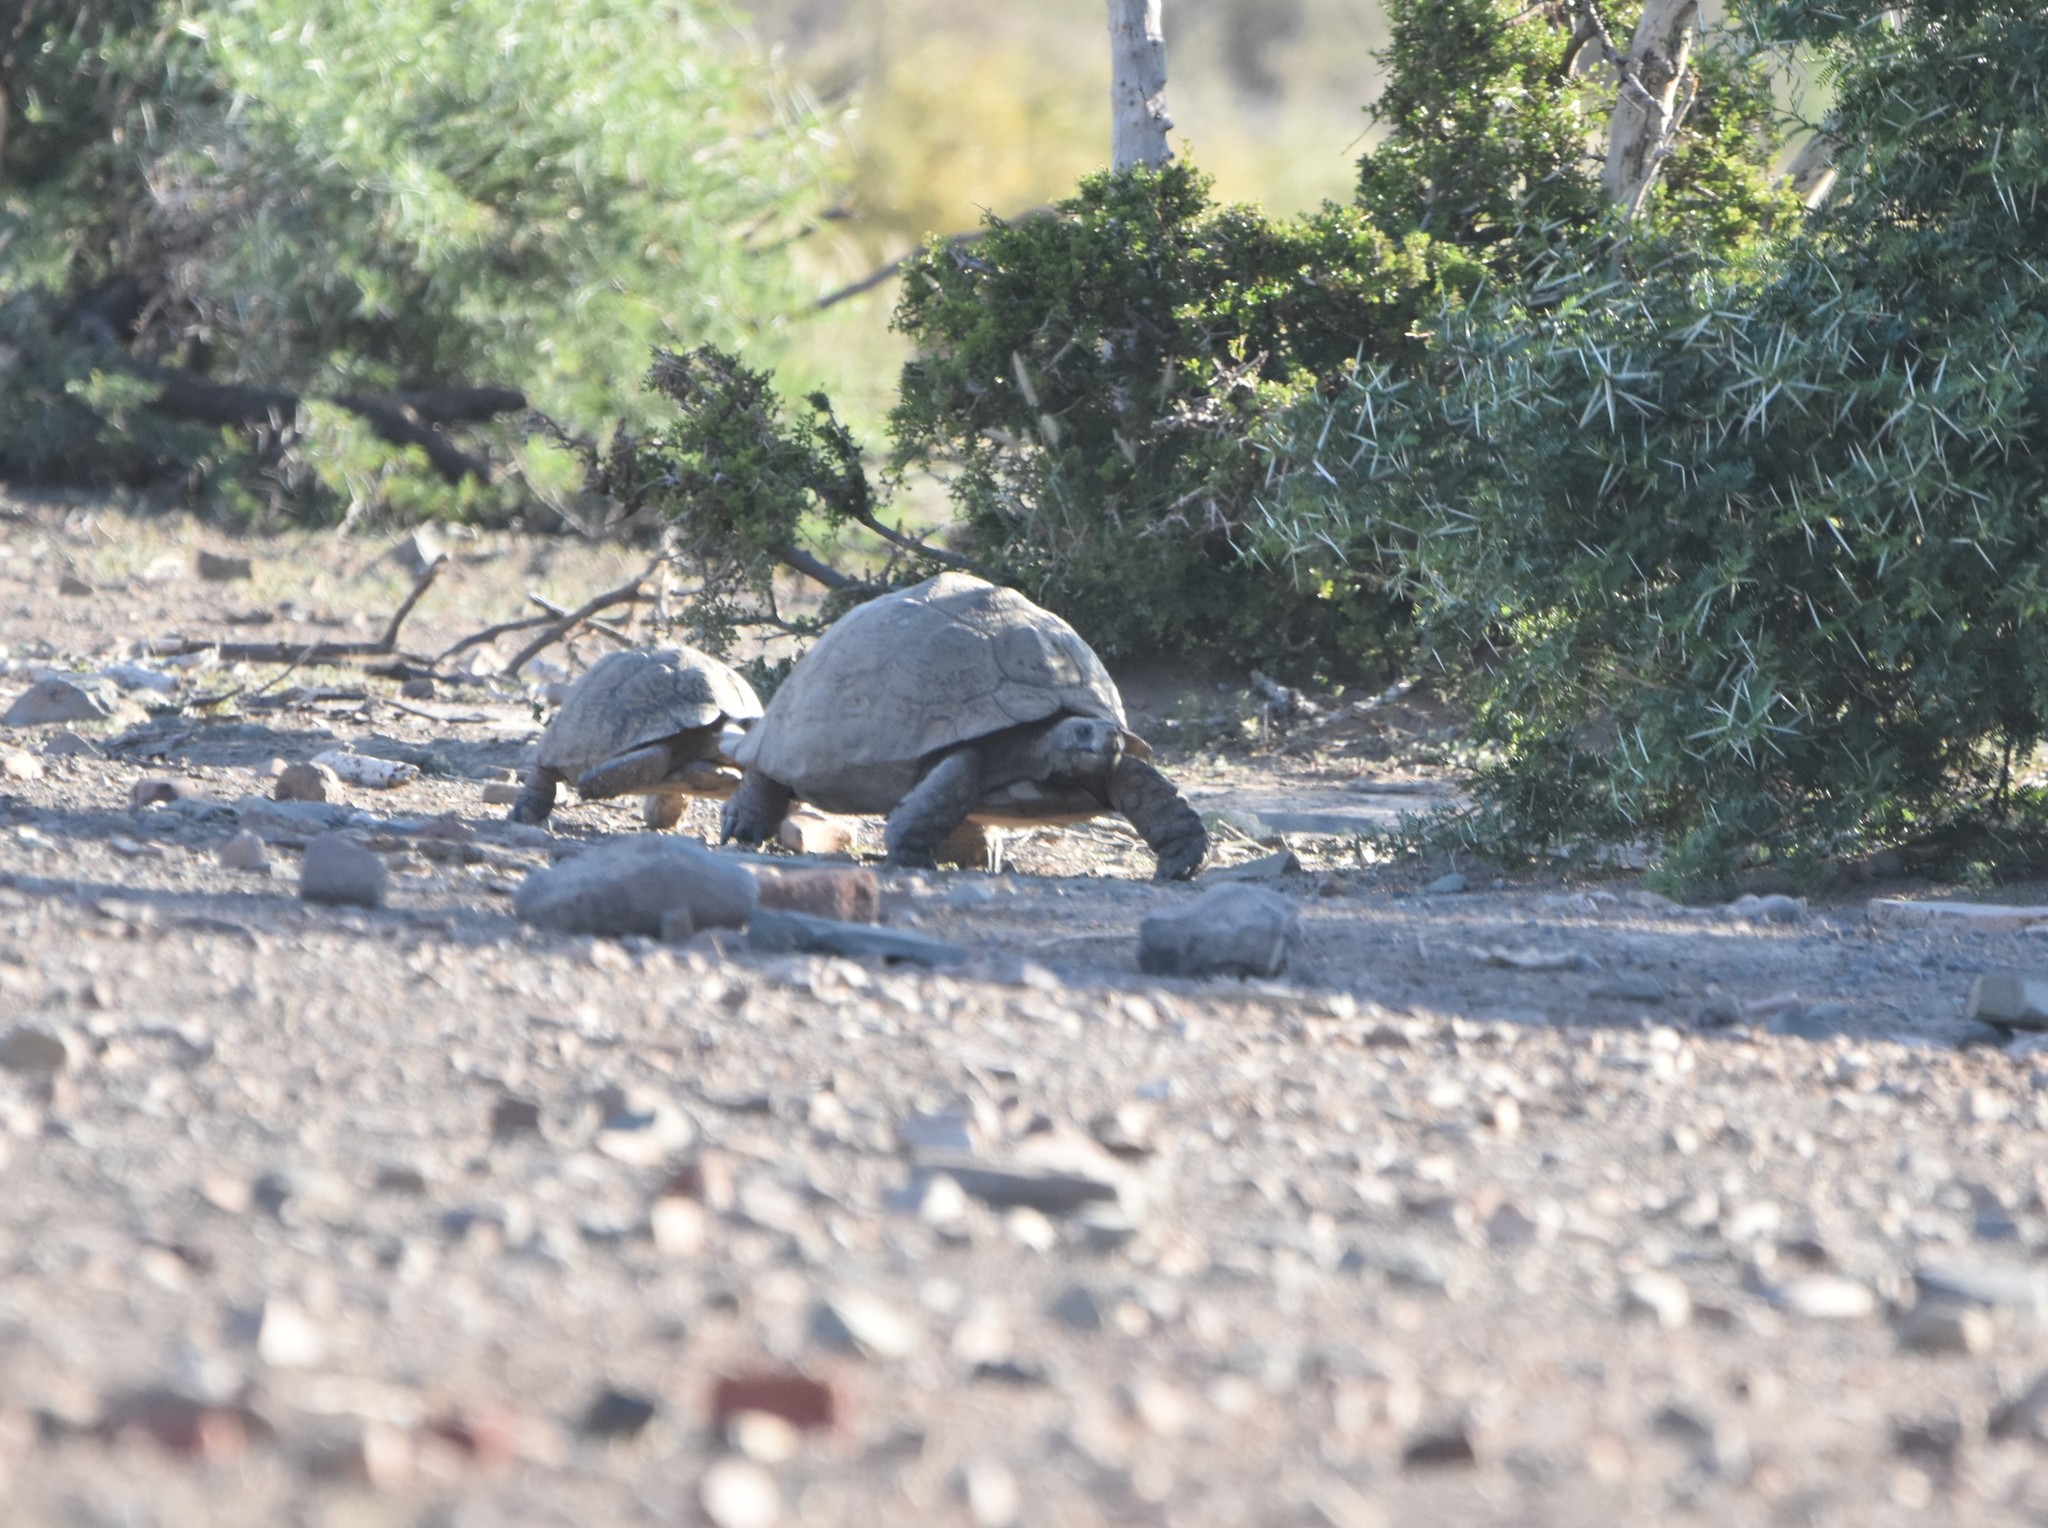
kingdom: Animalia
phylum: Chordata
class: Testudines
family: Testudinidae
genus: Stigmochelys
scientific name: Stigmochelys pardalis
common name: Leopard tortoise
